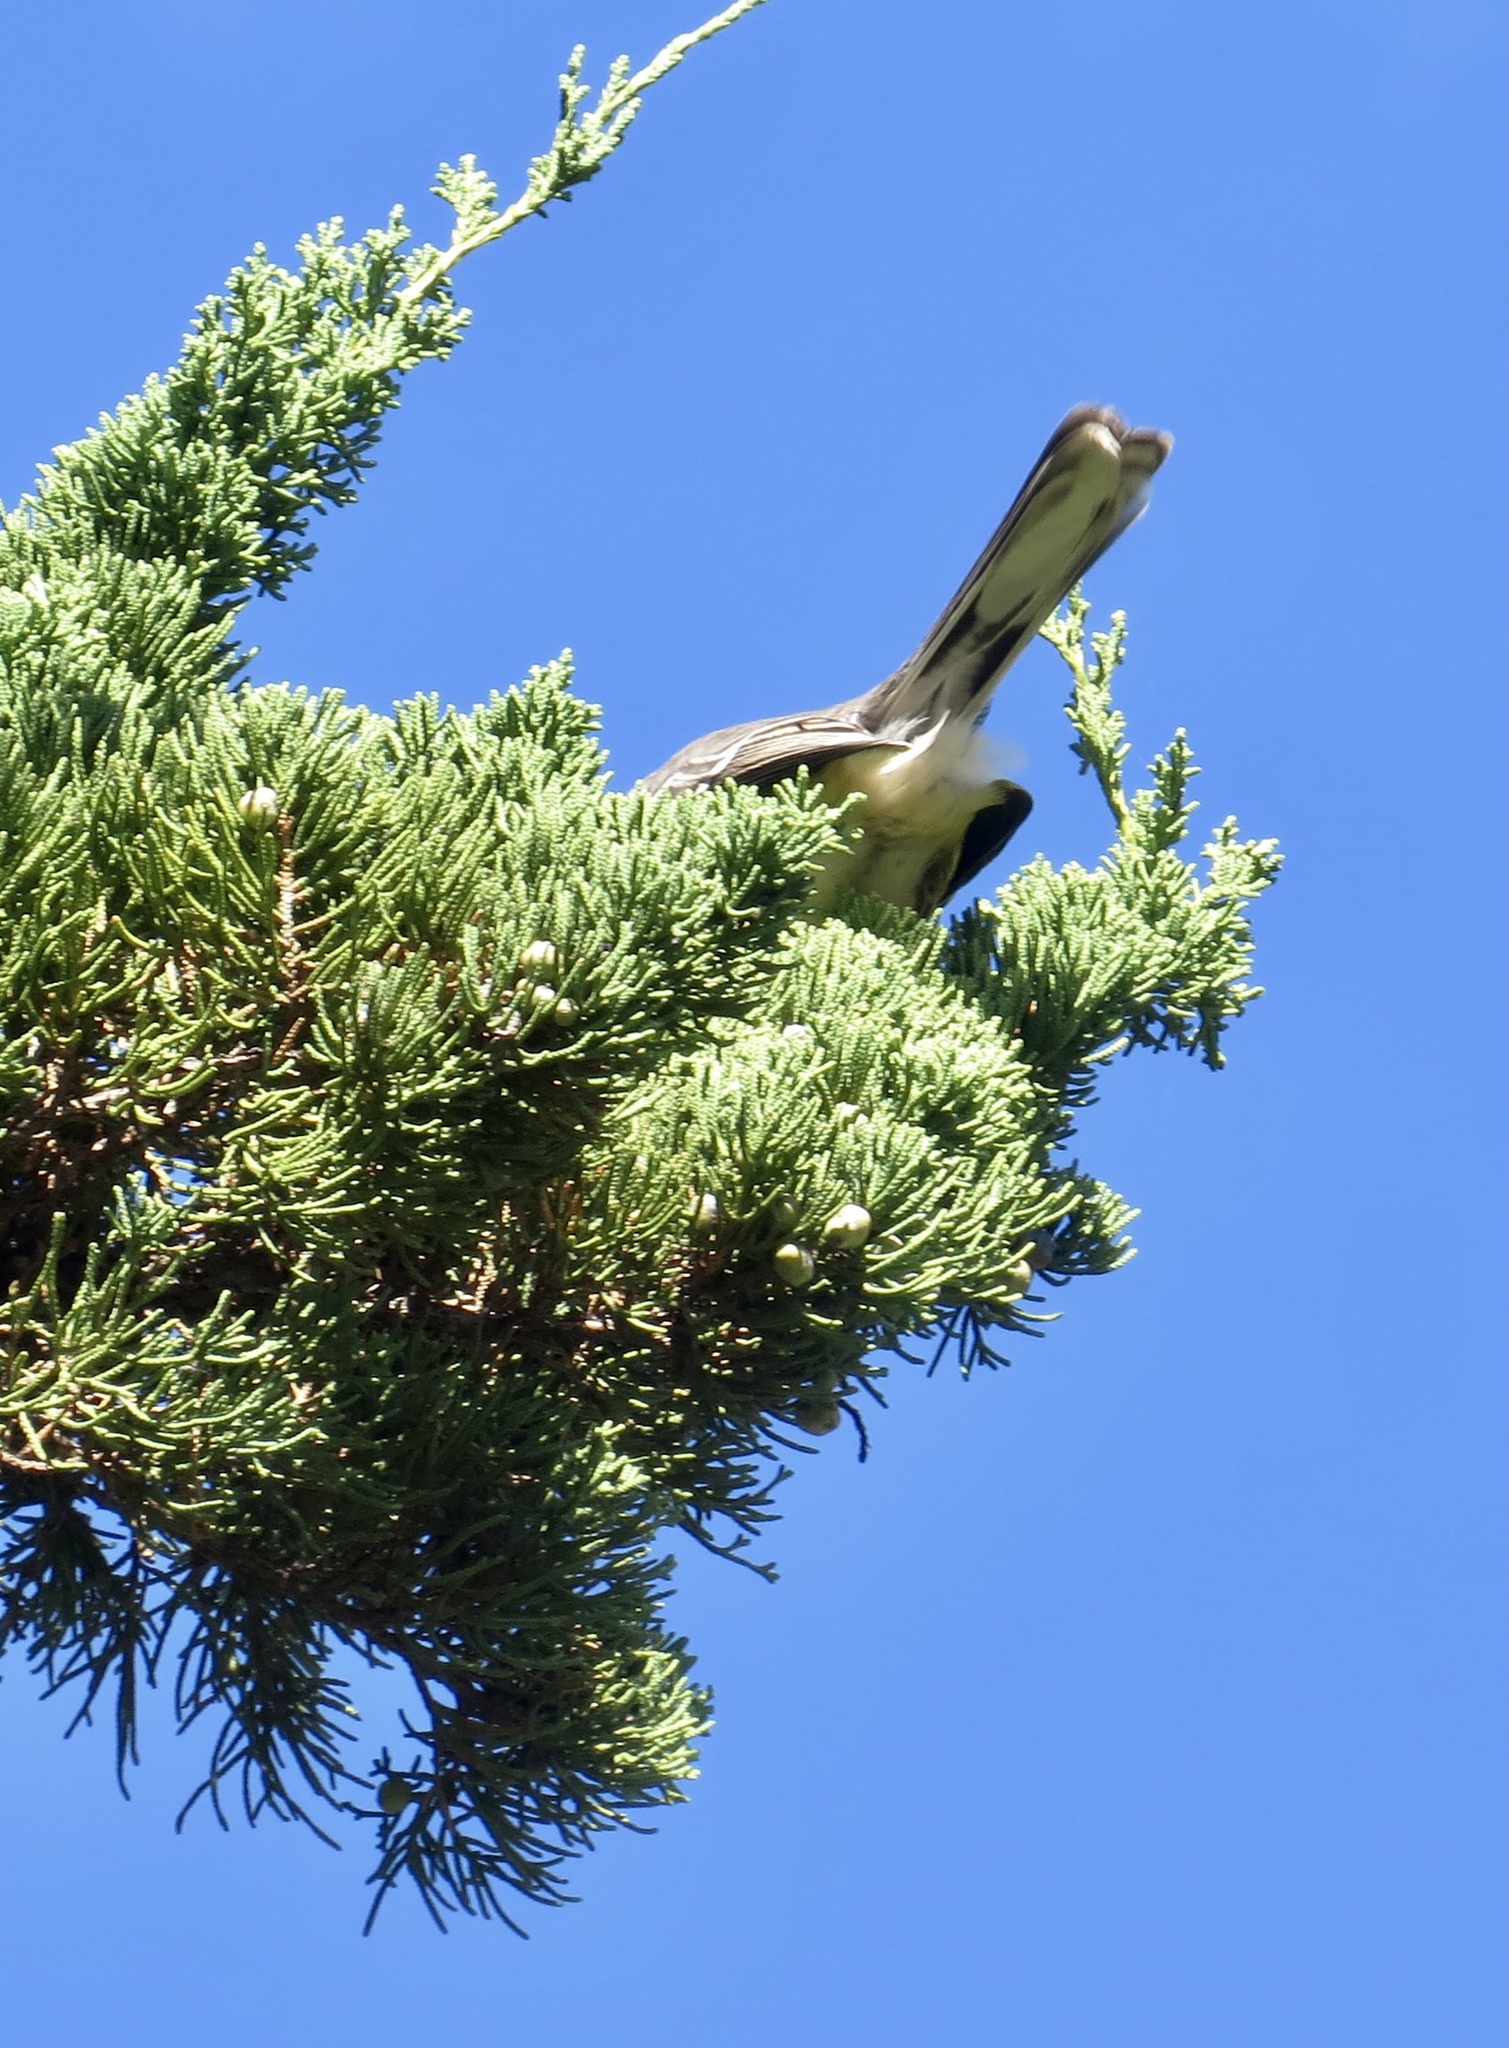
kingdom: Animalia
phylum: Chordata
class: Aves
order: Passeriformes
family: Mimidae
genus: Mimus
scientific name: Mimus polyglottos
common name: Northern mockingbird
